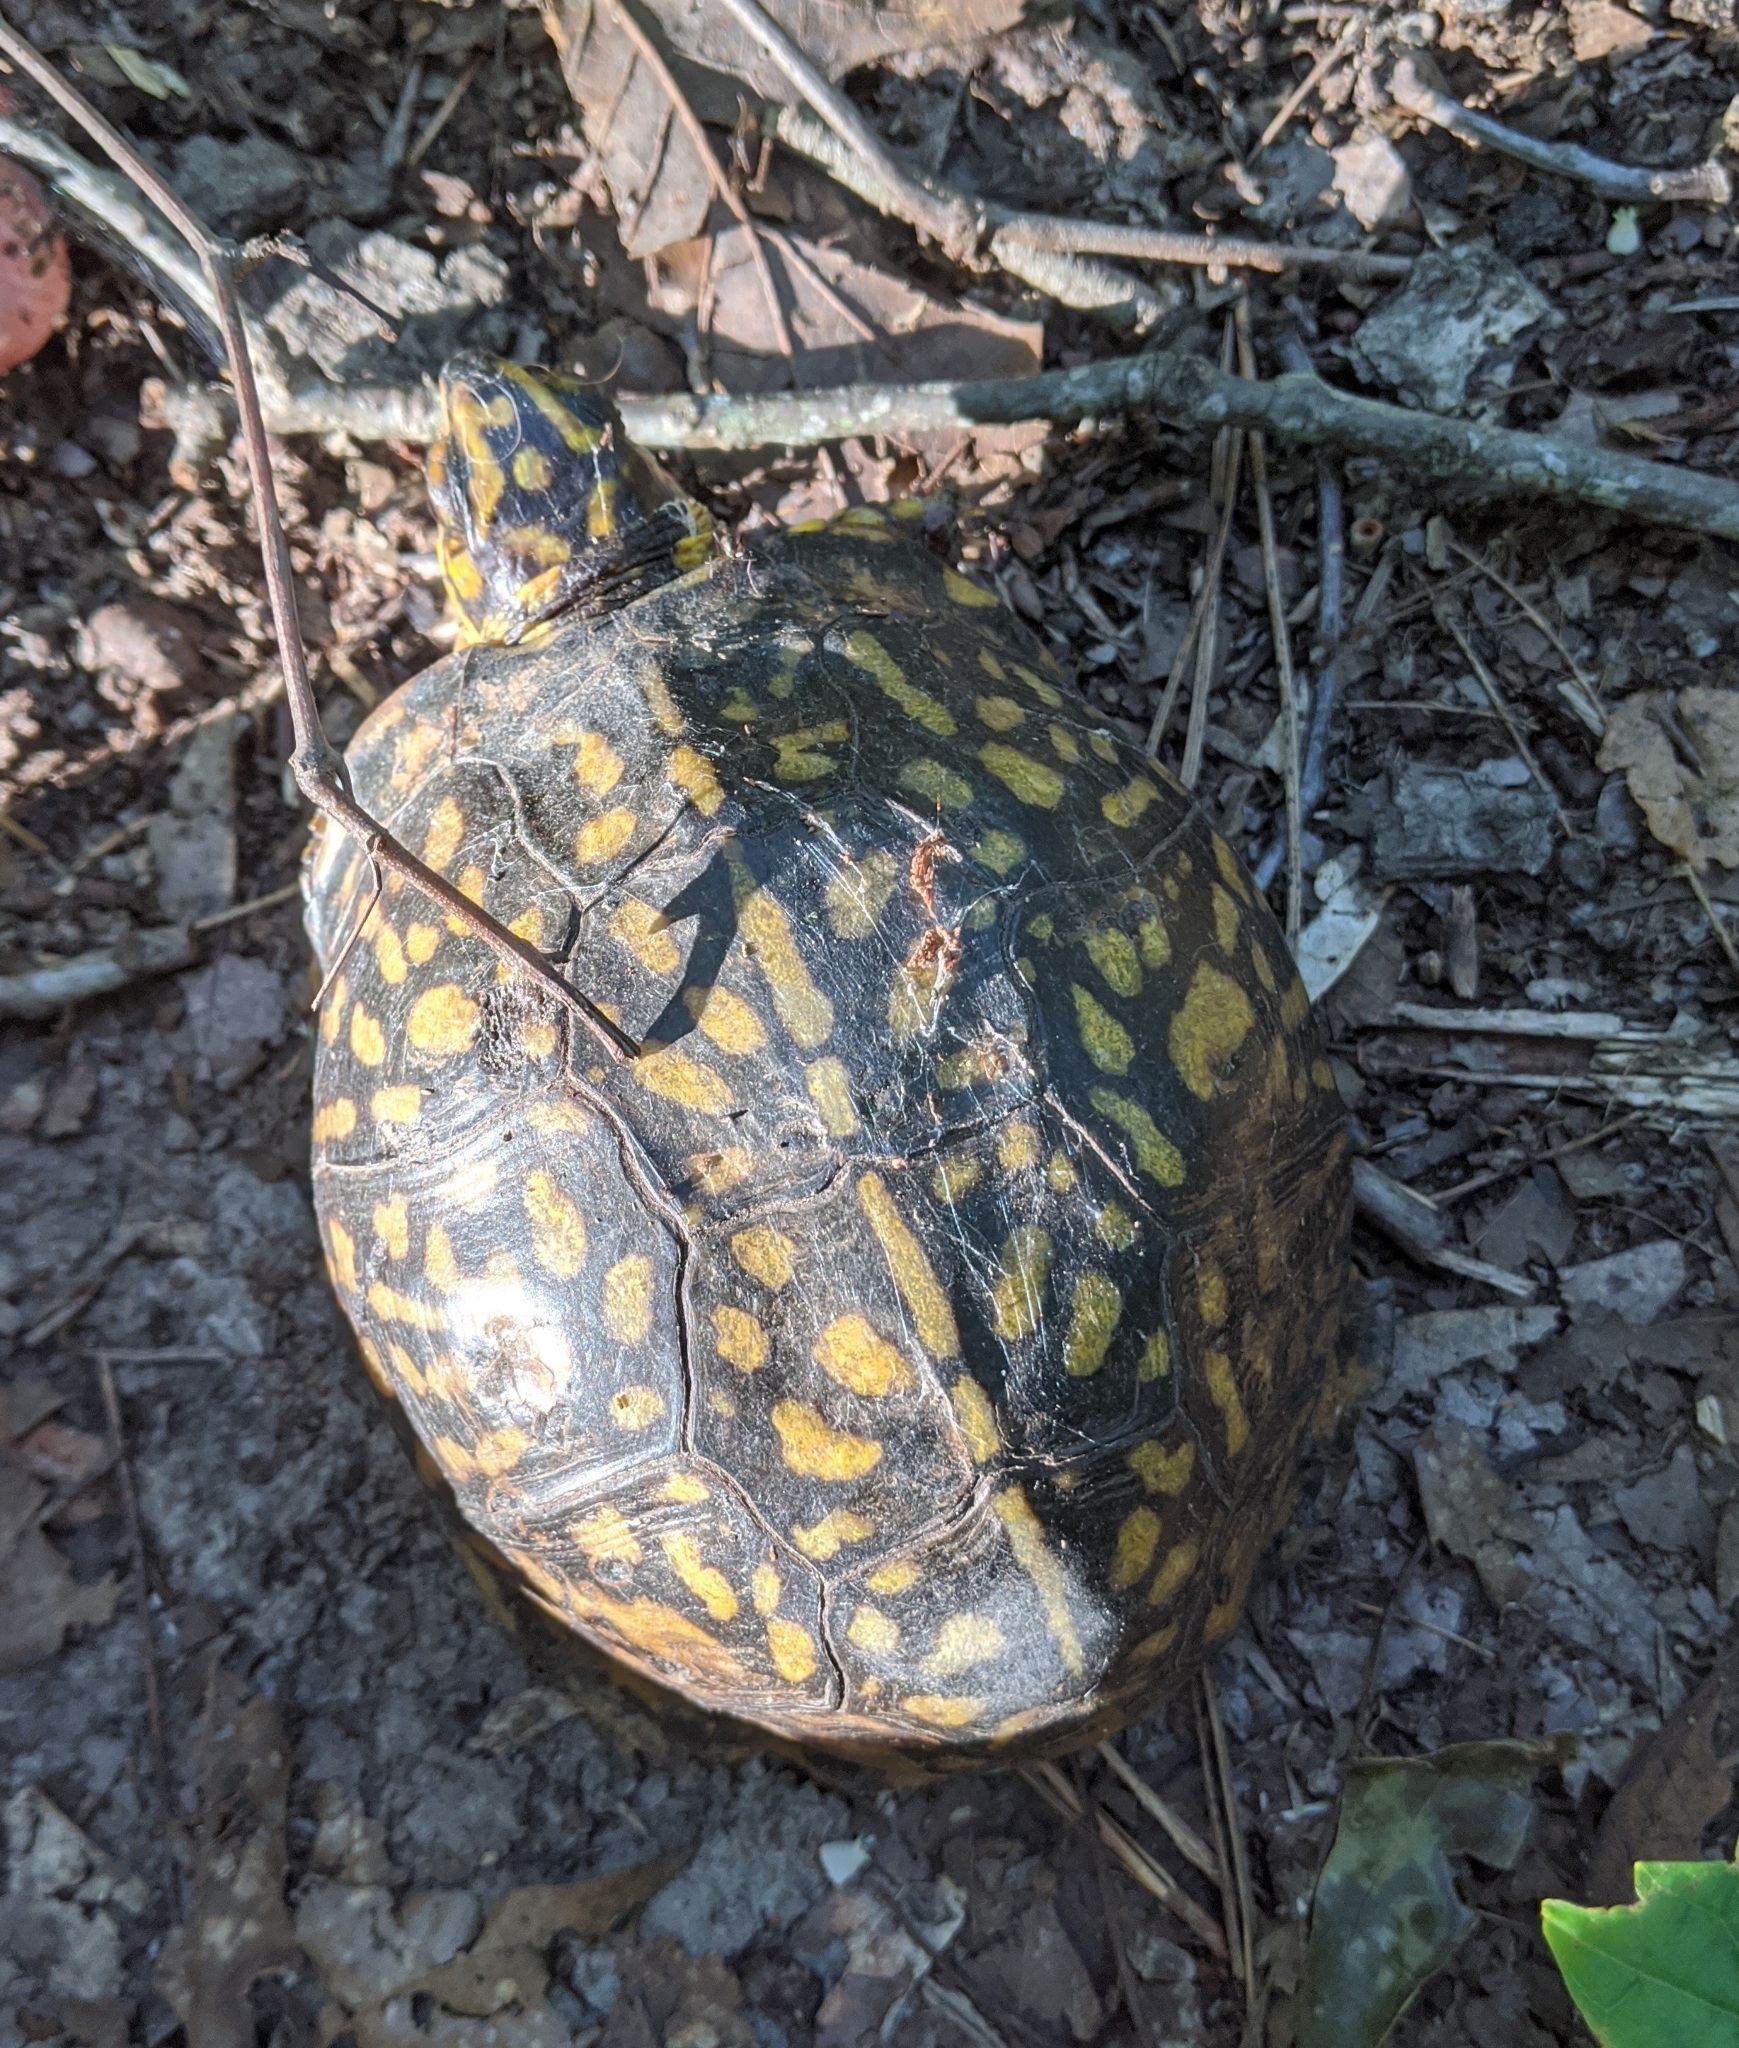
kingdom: Animalia
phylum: Chordata
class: Testudines
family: Emydidae
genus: Terrapene
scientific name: Terrapene carolina
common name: Common box turtle
